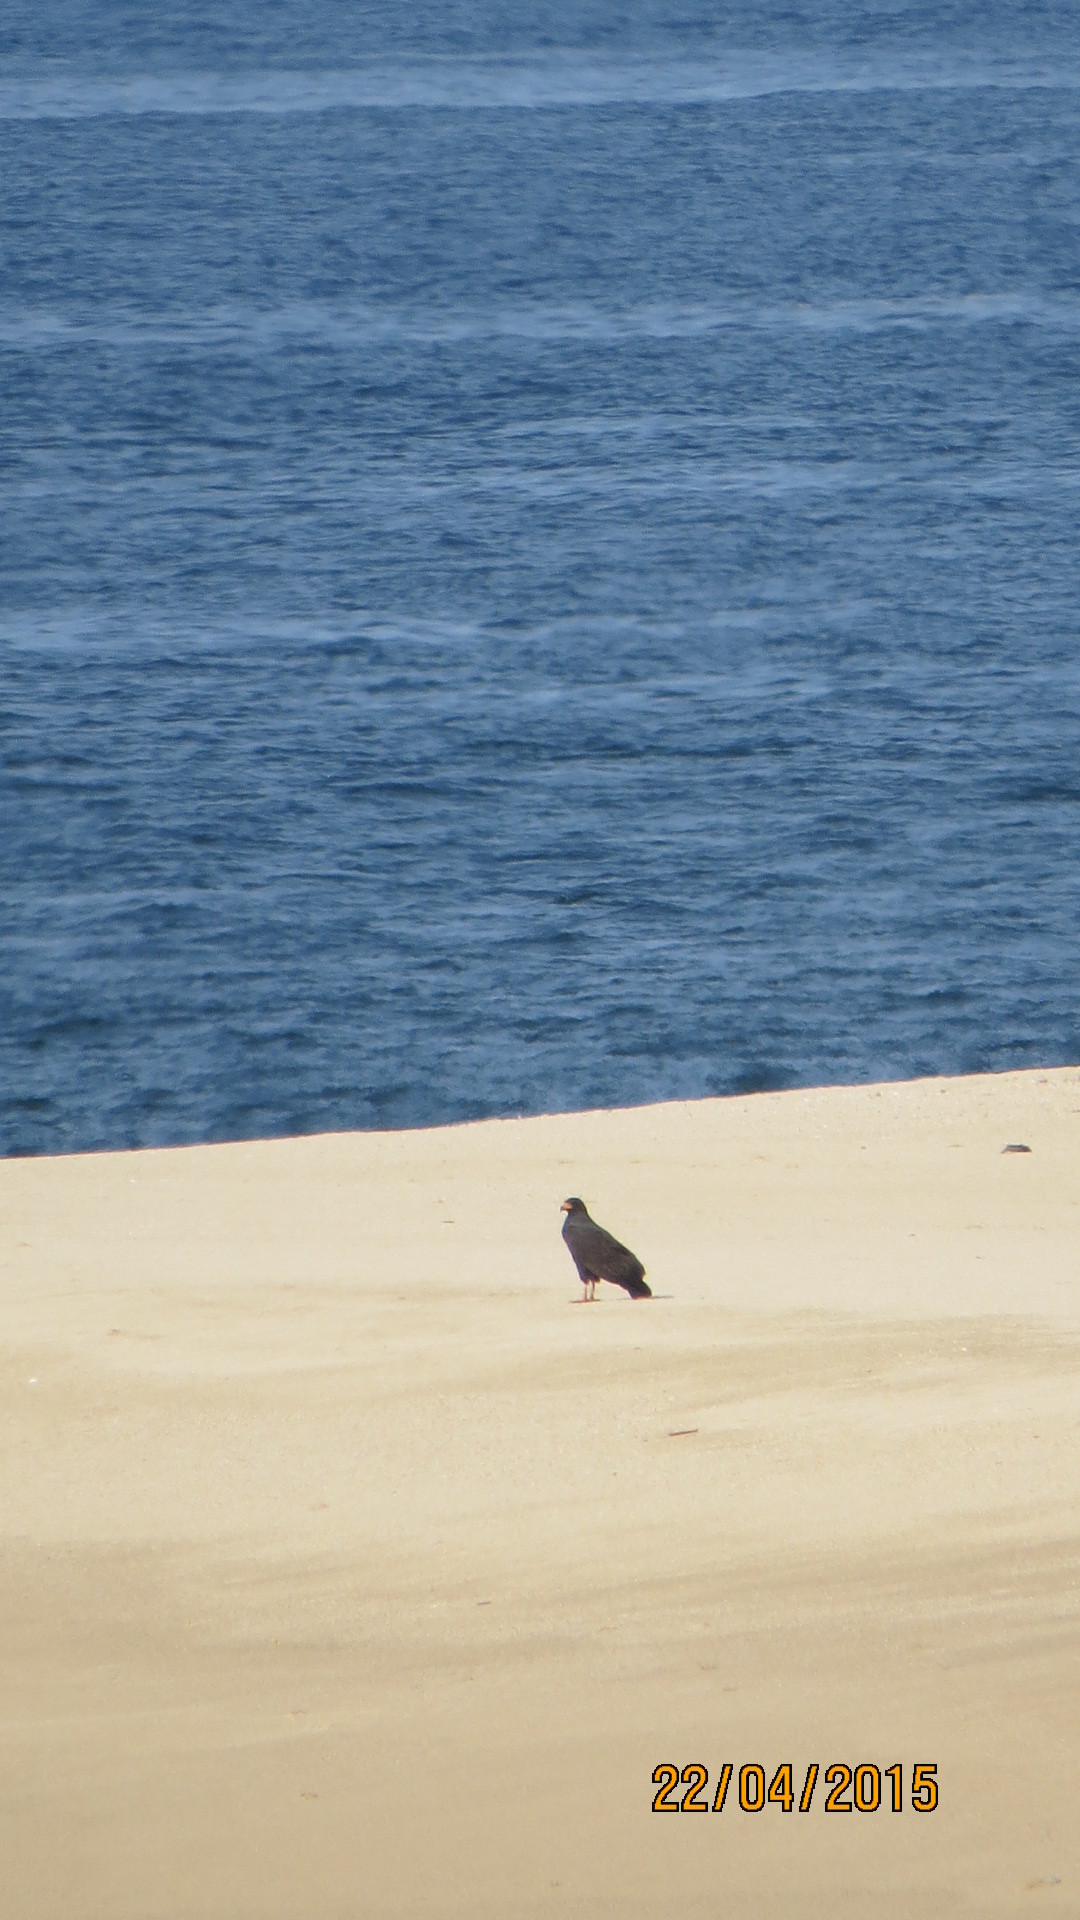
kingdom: Animalia
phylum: Chordata
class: Aves
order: Accipitriformes
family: Accipitridae
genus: Buteogallus
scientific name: Buteogallus anthracinus
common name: Common black hawk
